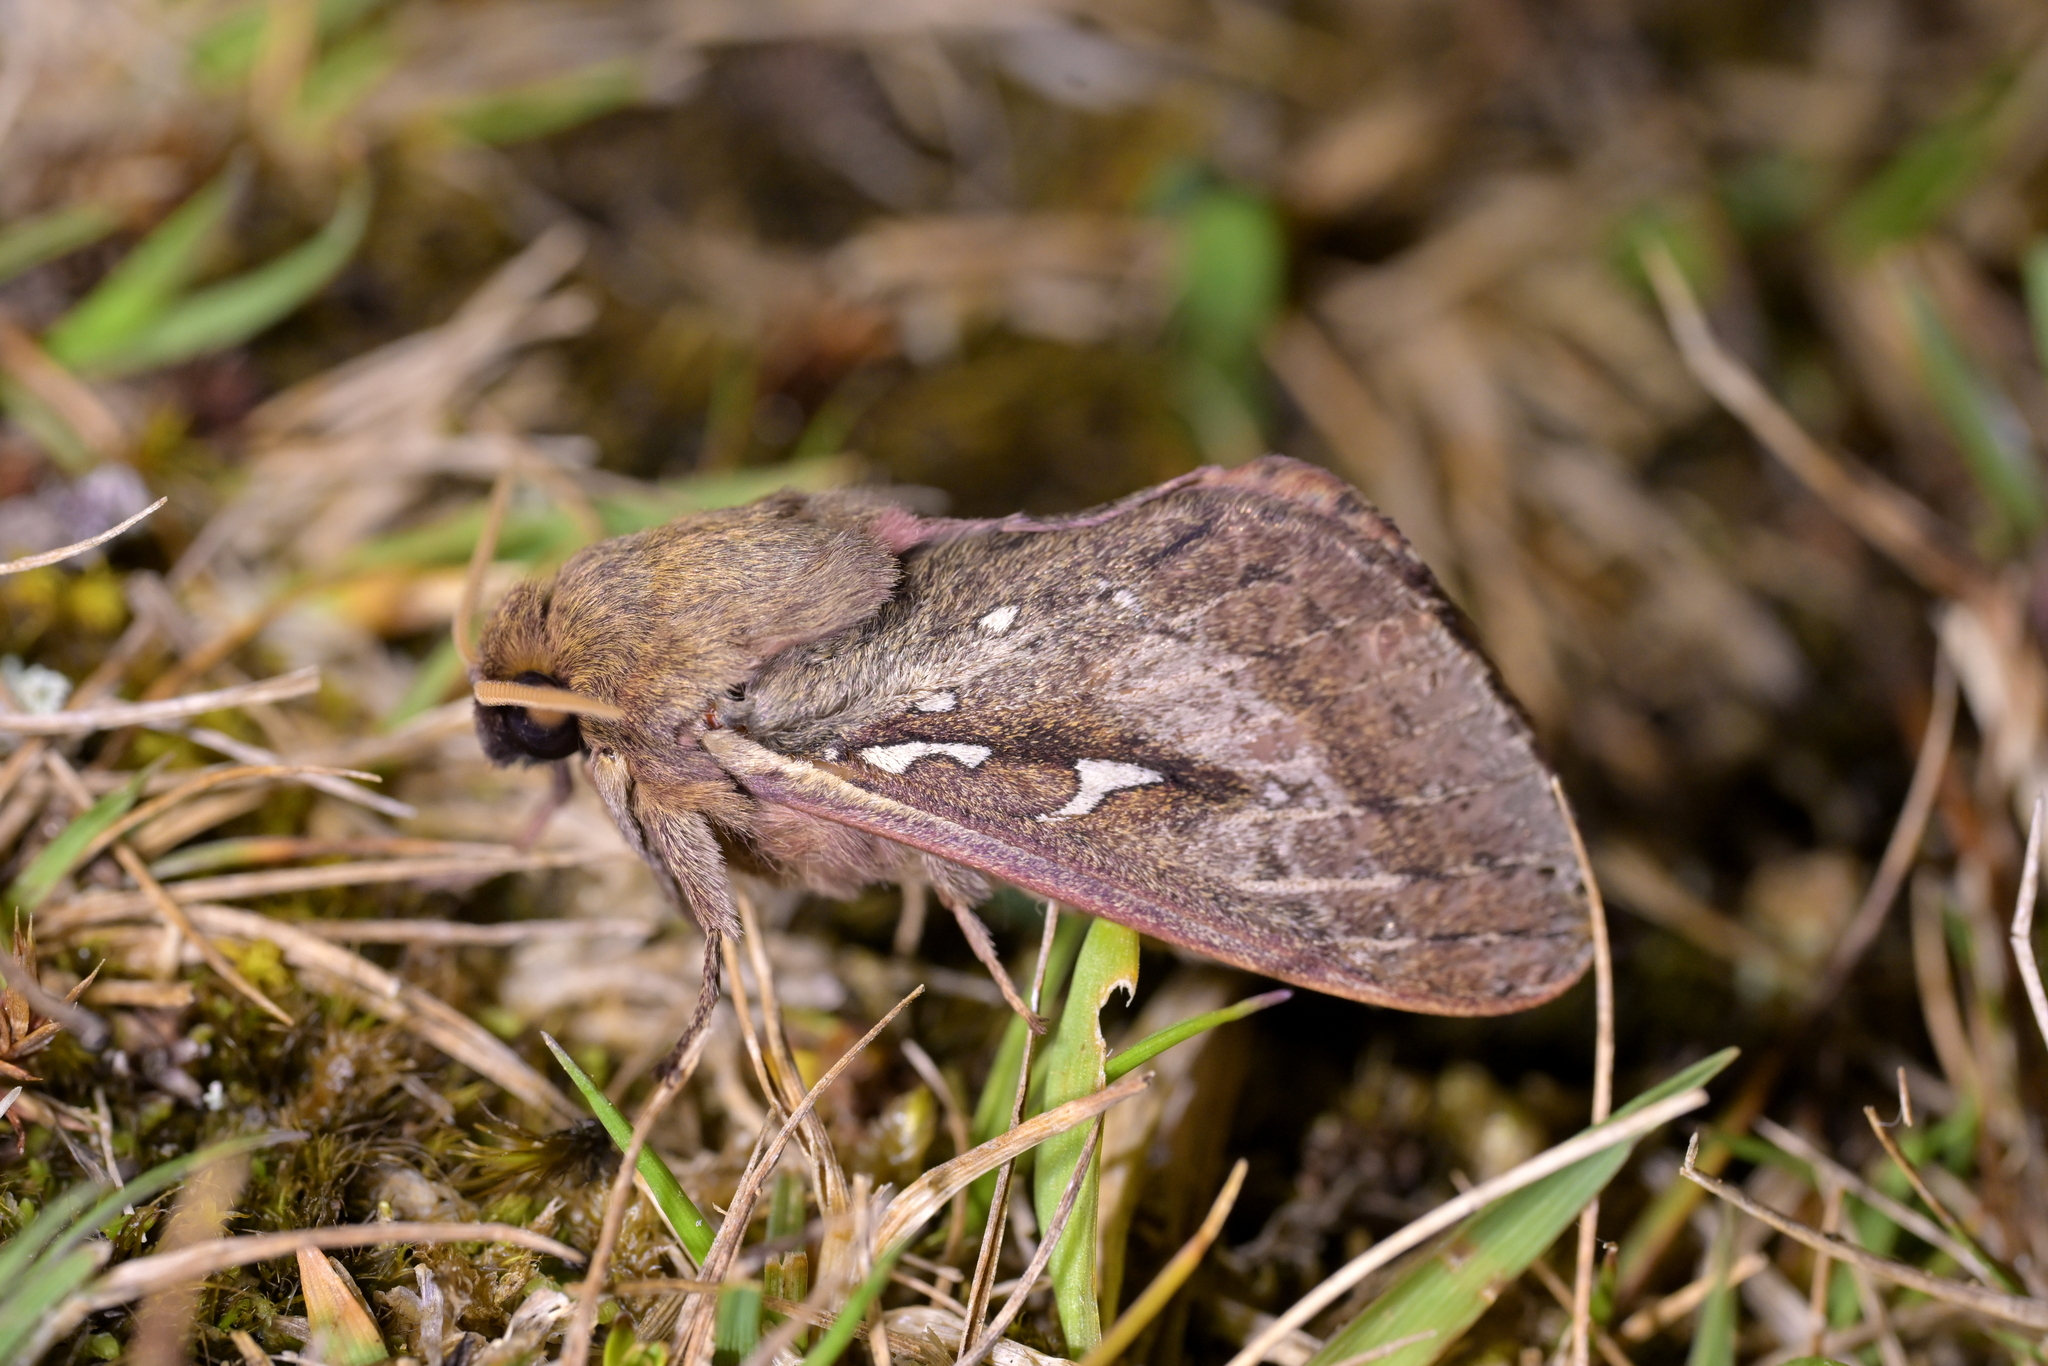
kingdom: Animalia
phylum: Arthropoda
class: Insecta
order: Lepidoptera
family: Hepialidae
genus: Wiseana
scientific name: Wiseana signata
